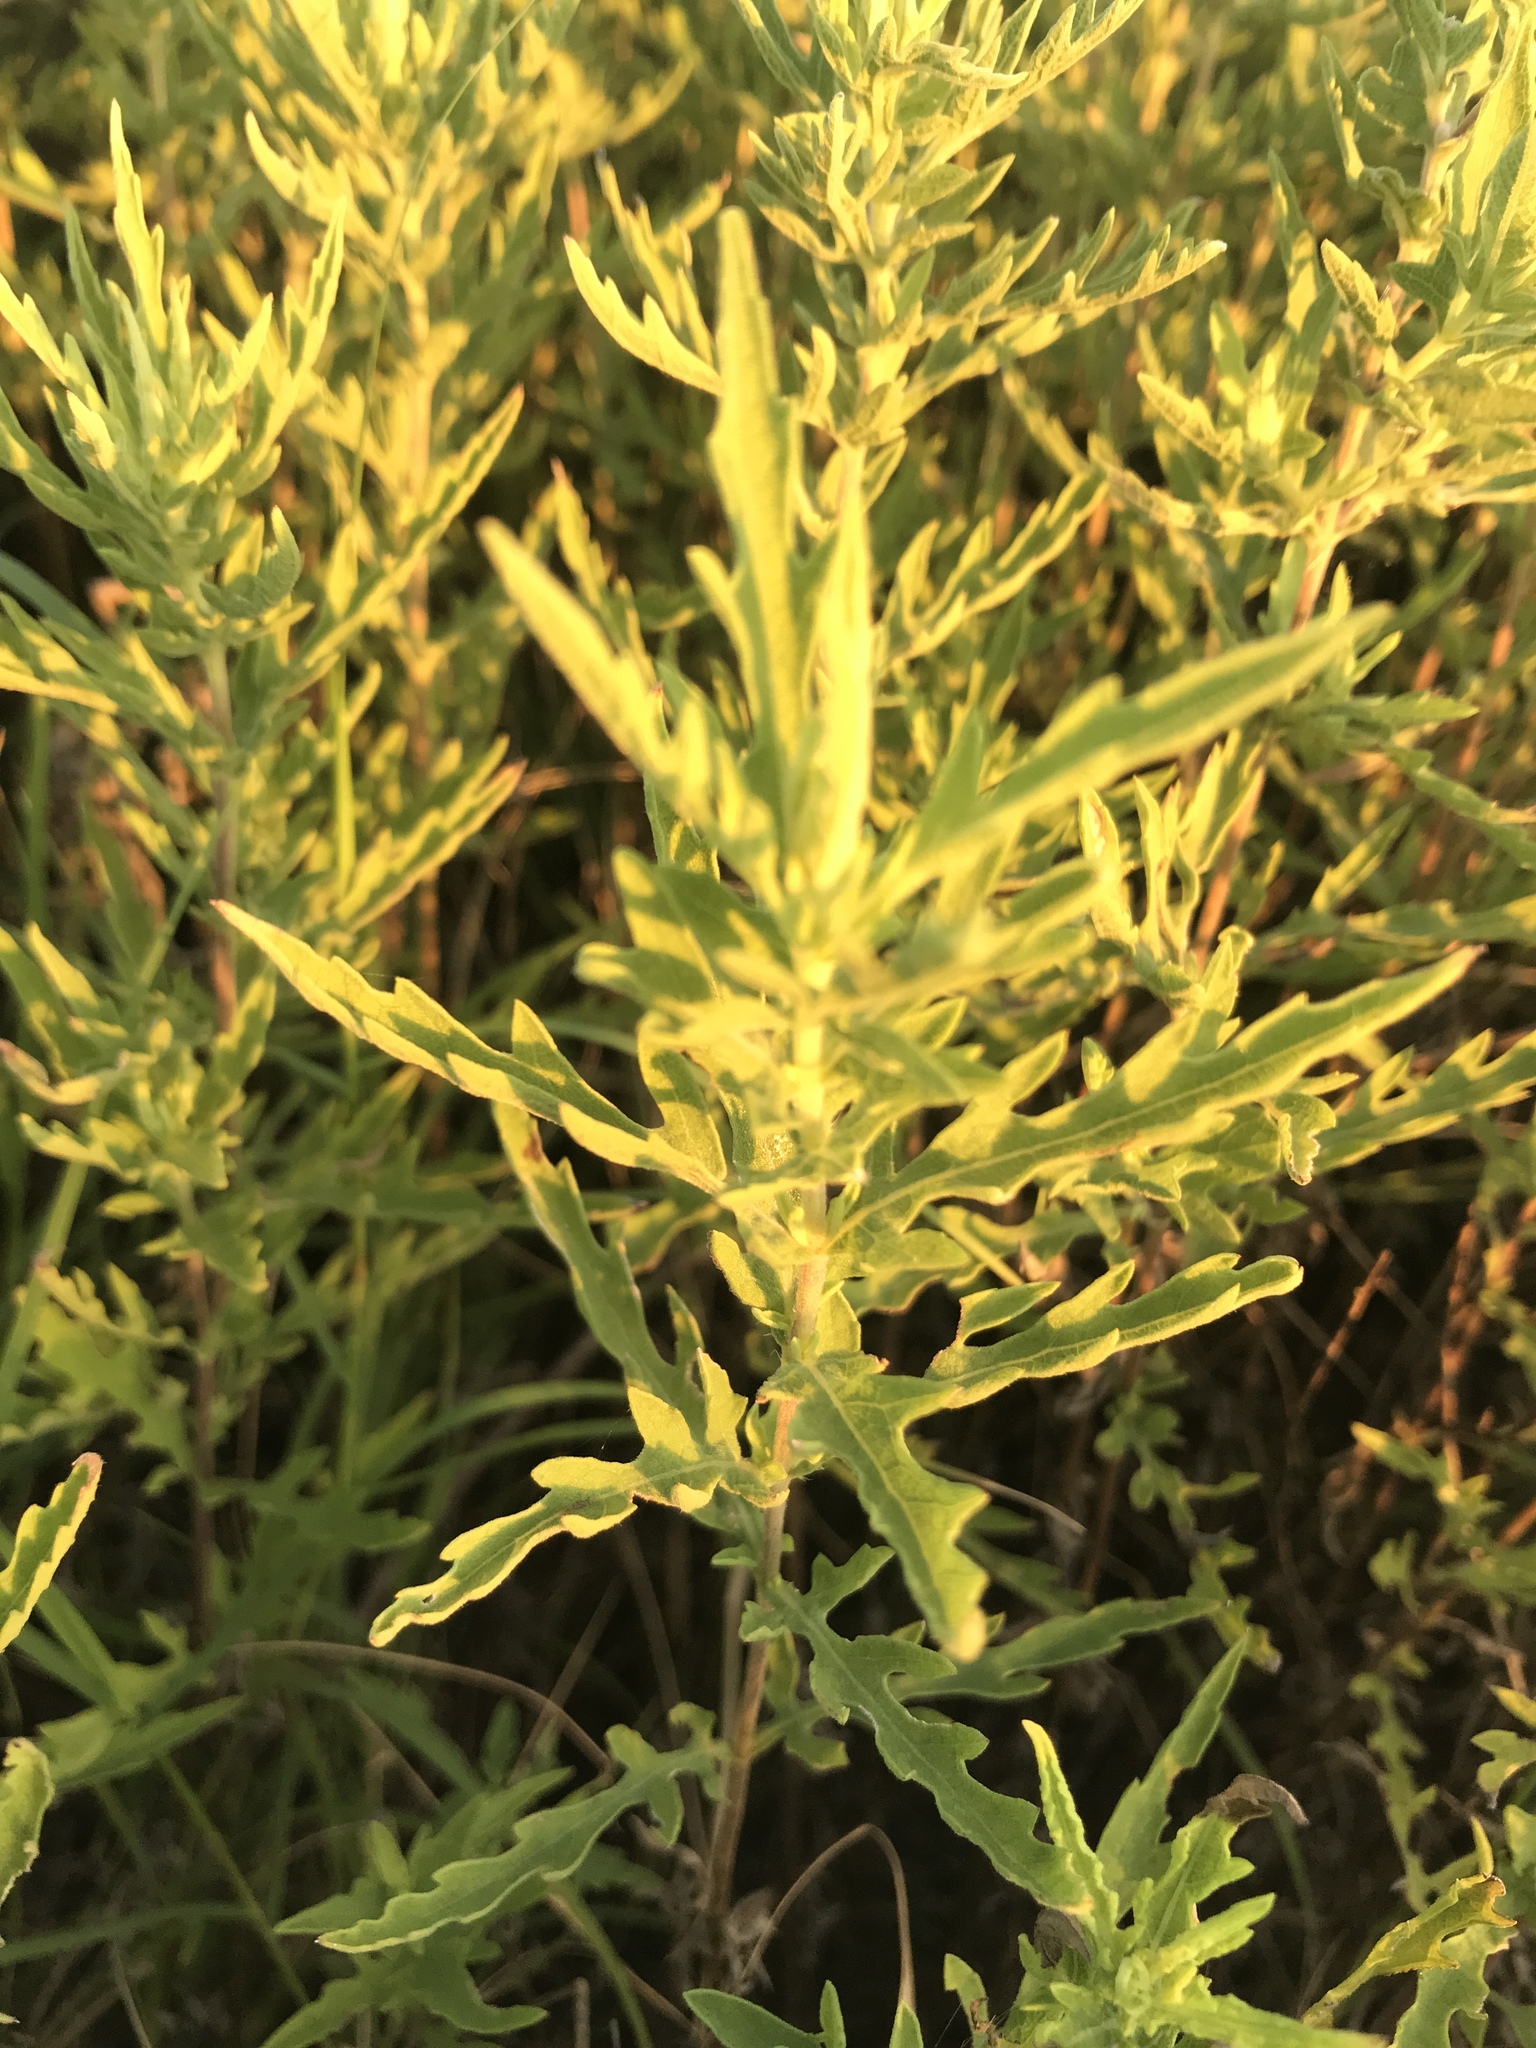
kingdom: Plantae
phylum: Tracheophyta
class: Magnoliopsida
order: Asterales
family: Asteraceae
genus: Ambrosia
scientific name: Ambrosia psilostachya
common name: Perennial ragweed
